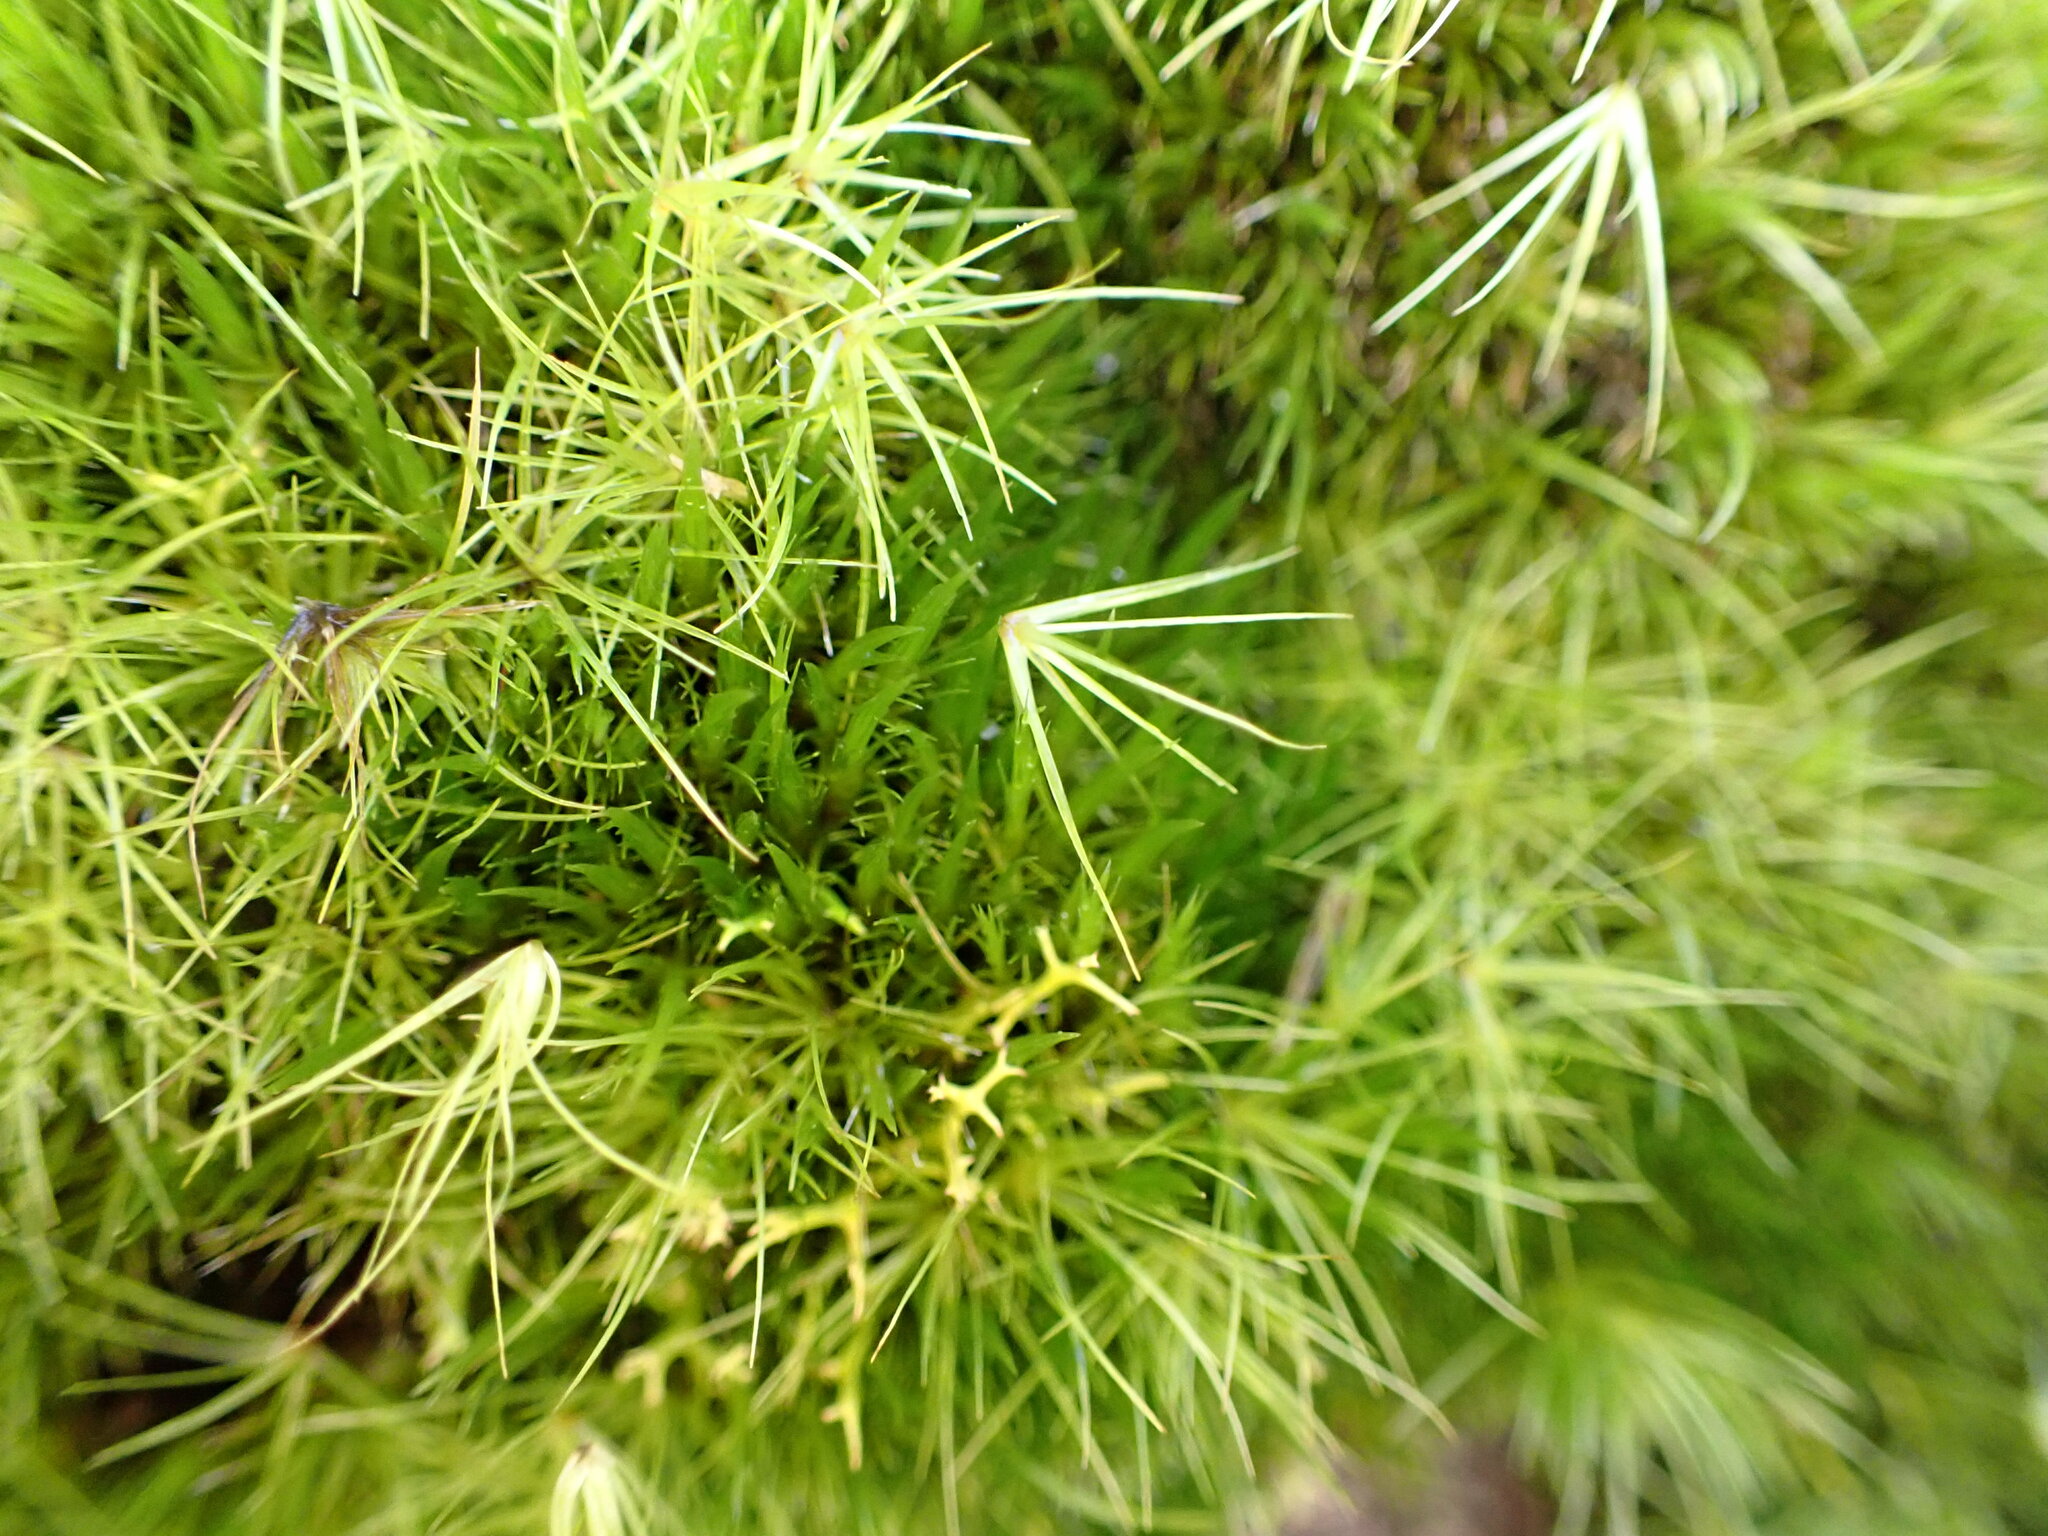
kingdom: Plantae
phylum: Bryophyta
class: Bryopsida
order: Dicranales
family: Leucobryaceae
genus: Campylopus
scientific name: Campylopus clavatus
